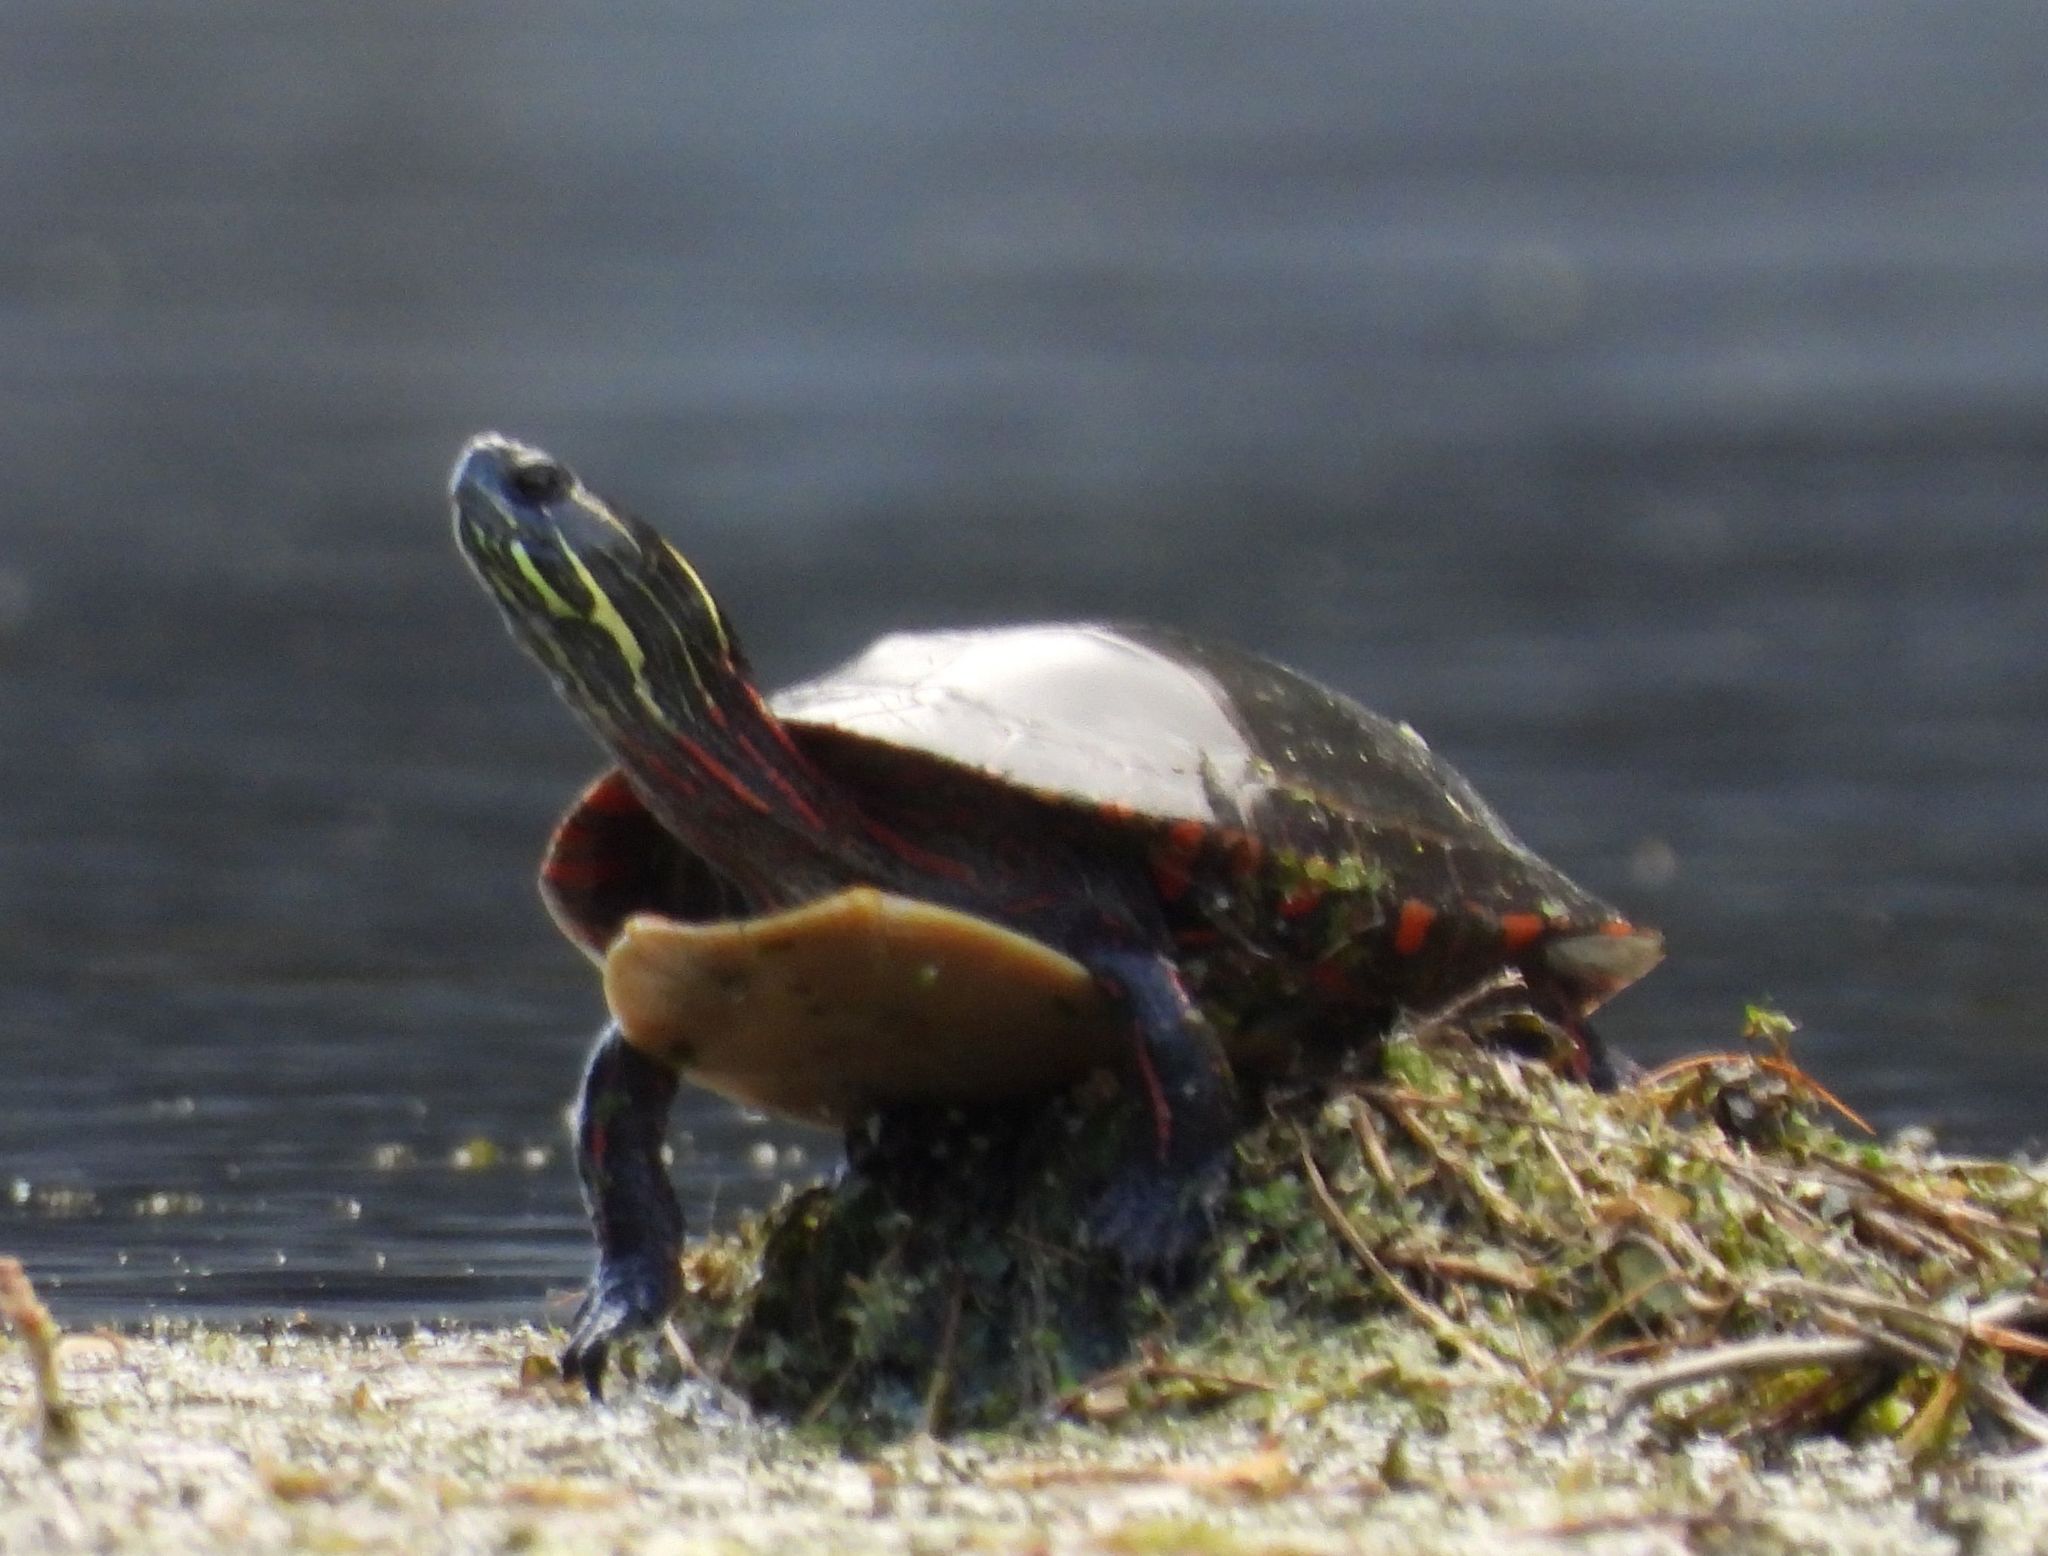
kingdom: Animalia
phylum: Chordata
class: Testudines
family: Emydidae
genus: Chrysemys
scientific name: Chrysemys picta
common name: Painted turtle
